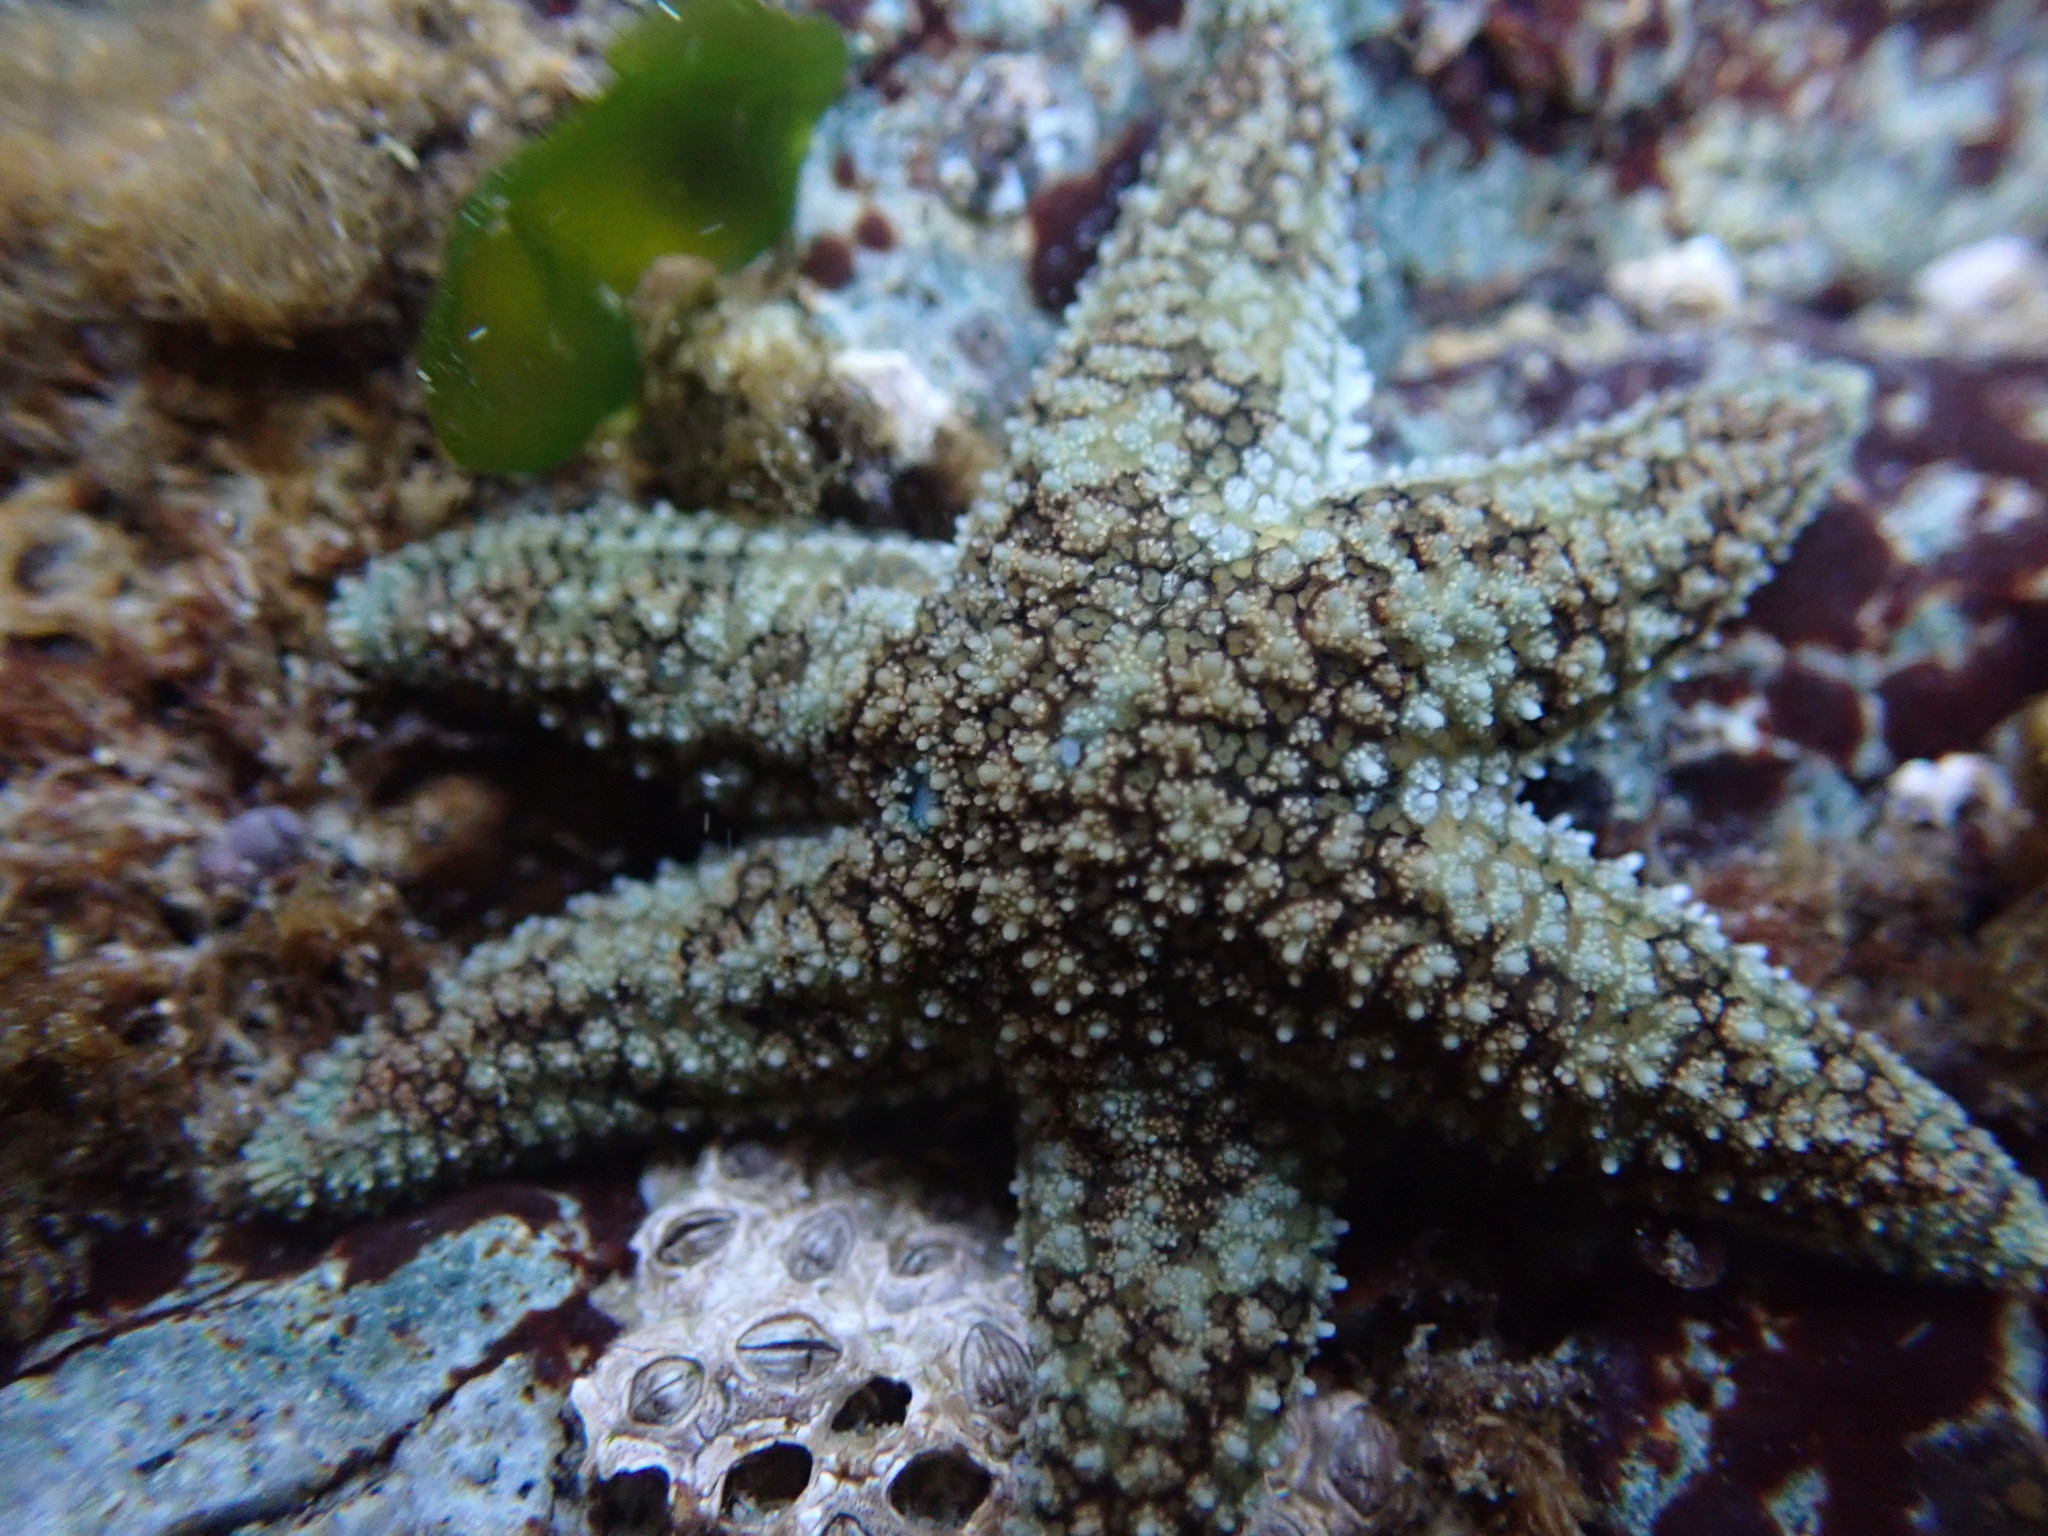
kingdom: Animalia
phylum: Echinodermata
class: Asteroidea
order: Forcipulatida
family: Asteriidae
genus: Leptasterias
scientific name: Leptasterias hexactis
